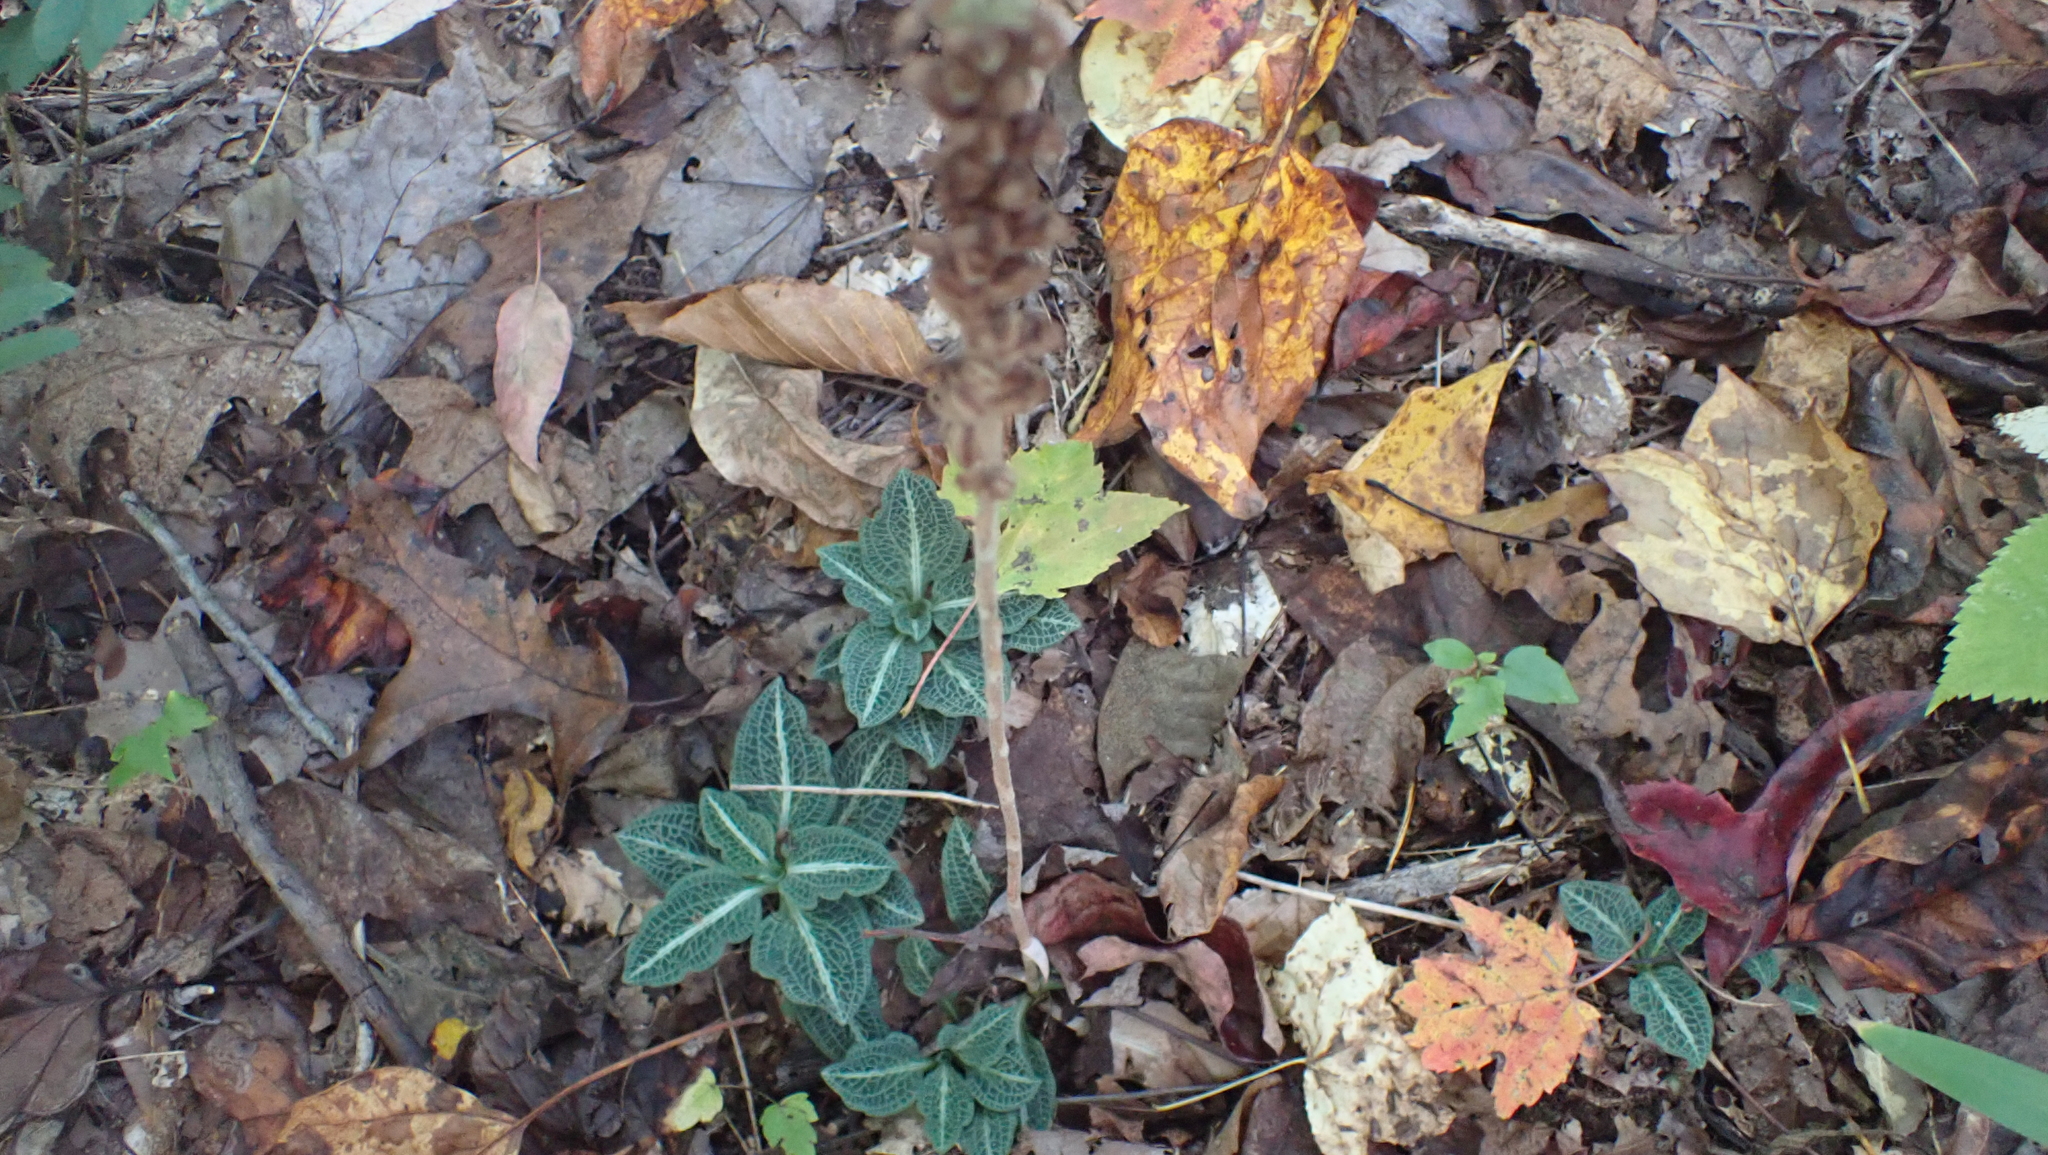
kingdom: Plantae
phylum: Tracheophyta
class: Liliopsida
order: Asparagales
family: Orchidaceae
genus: Goodyera
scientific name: Goodyera pubescens
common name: Downy rattlesnake-plantain
